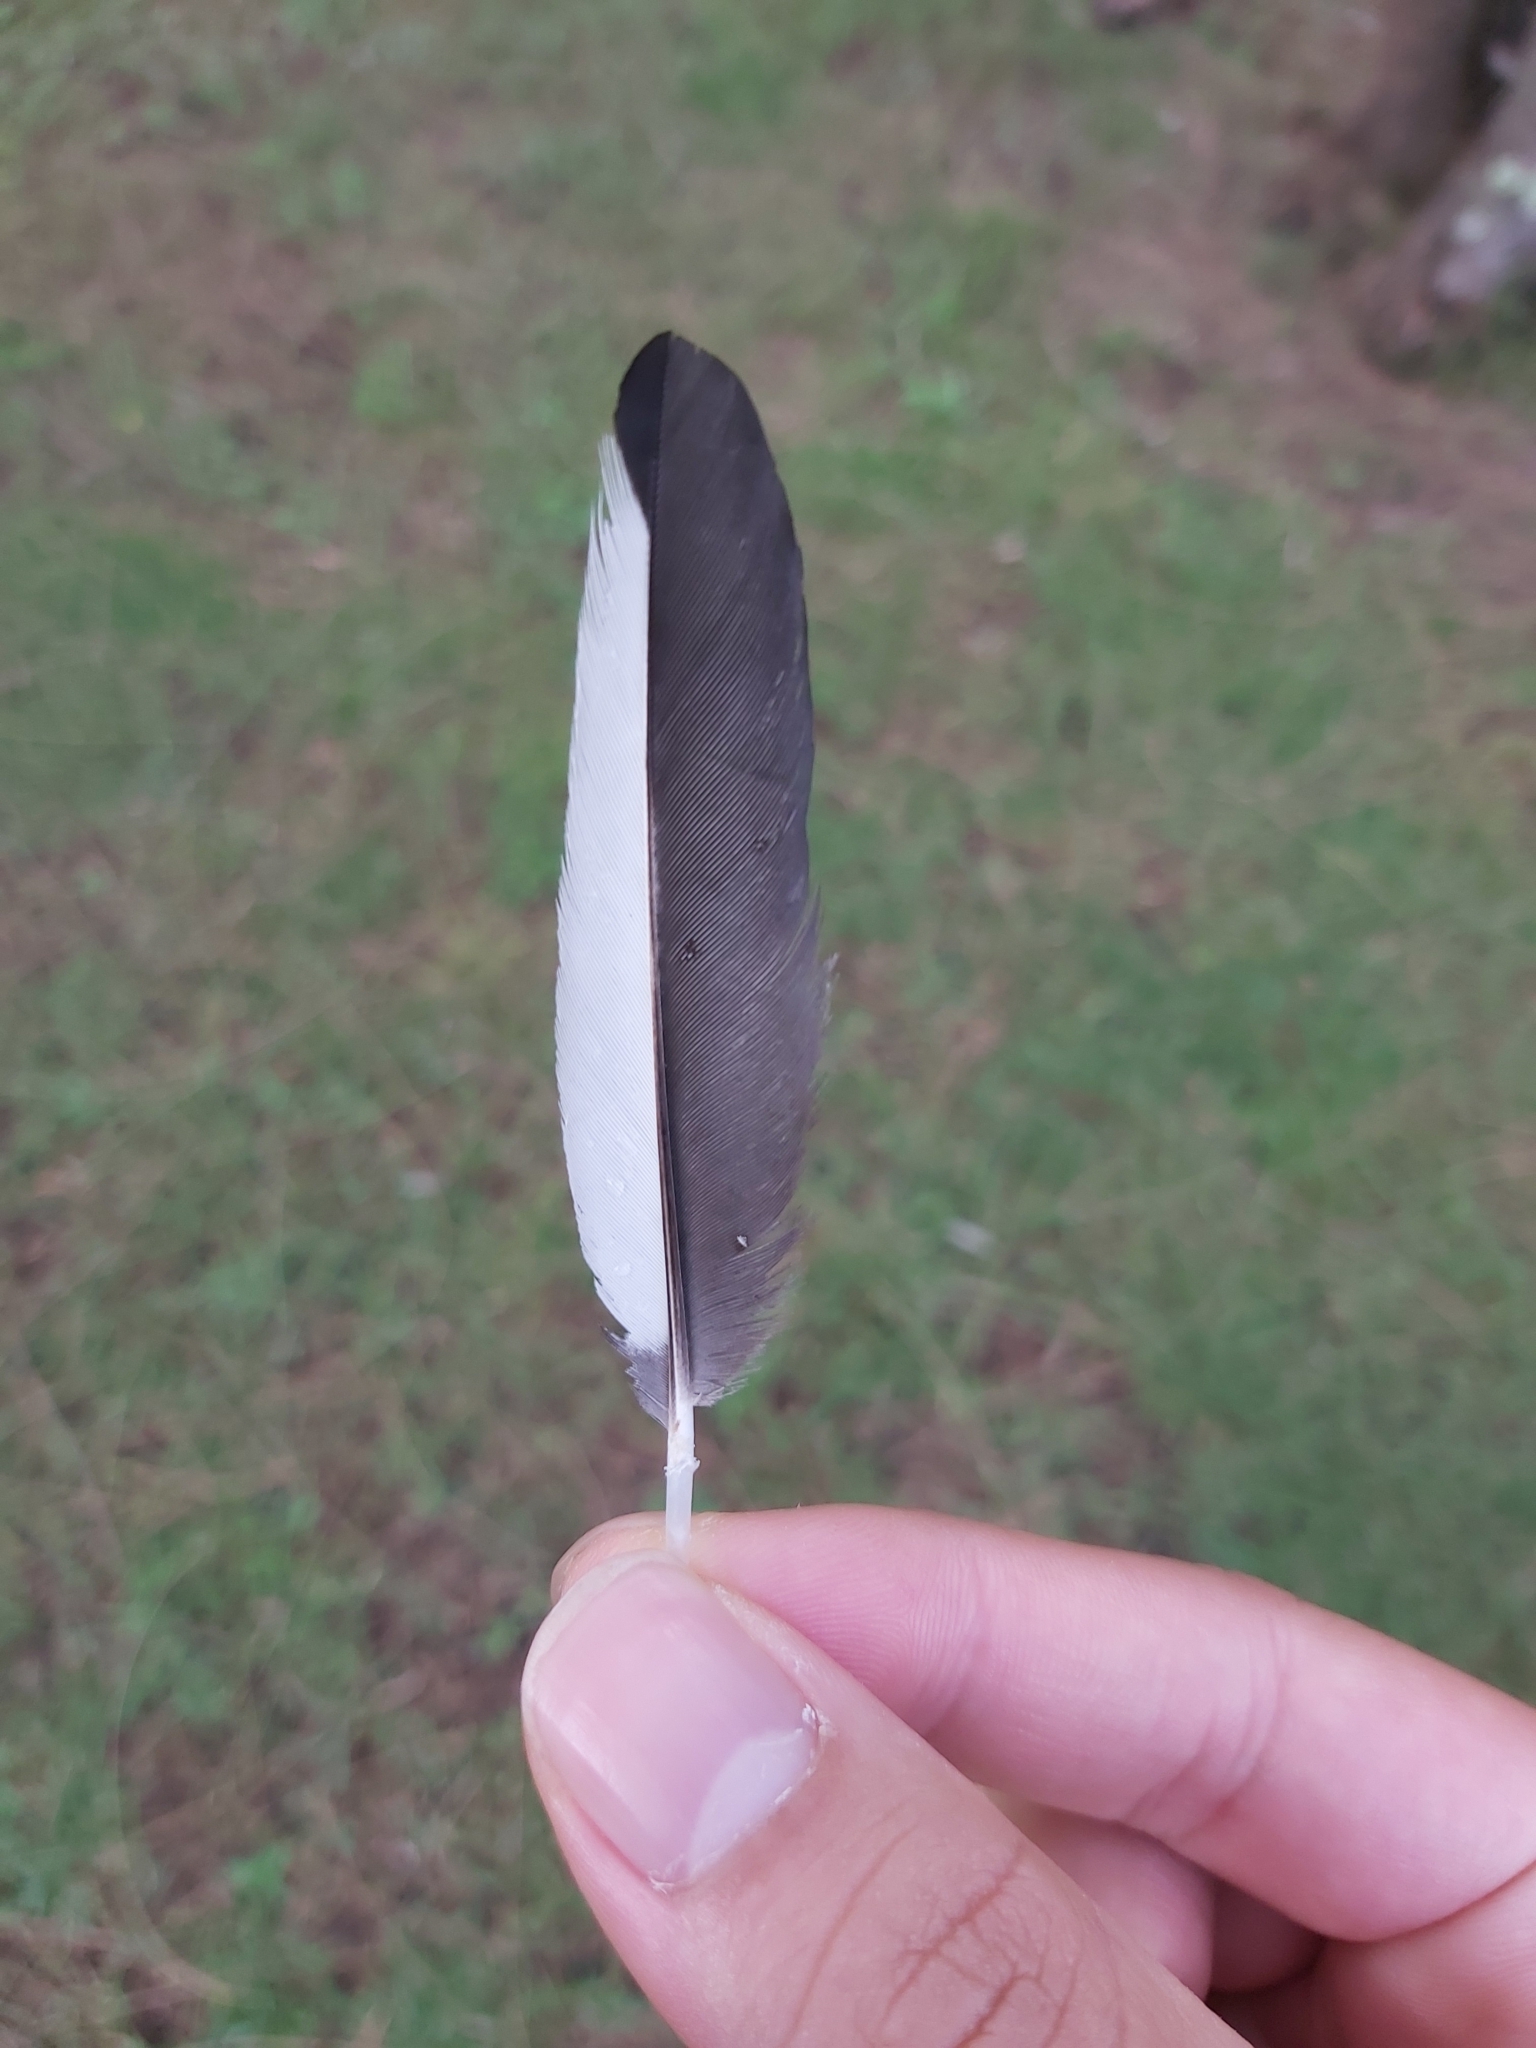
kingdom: Animalia
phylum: Chordata
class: Aves
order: Passeriformes
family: Cracticidae
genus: Gymnorhina
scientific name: Gymnorhina tibicen
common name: Australian magpie
